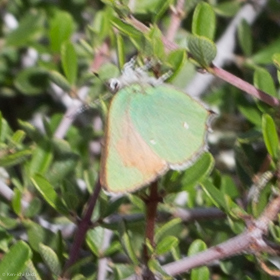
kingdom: Animalia
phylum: Arthropoda
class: Insecta
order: Lepidoptera
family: Lycaenidae
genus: Callophrys
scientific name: Callophrys dumetorum
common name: Bramble hairstreak
